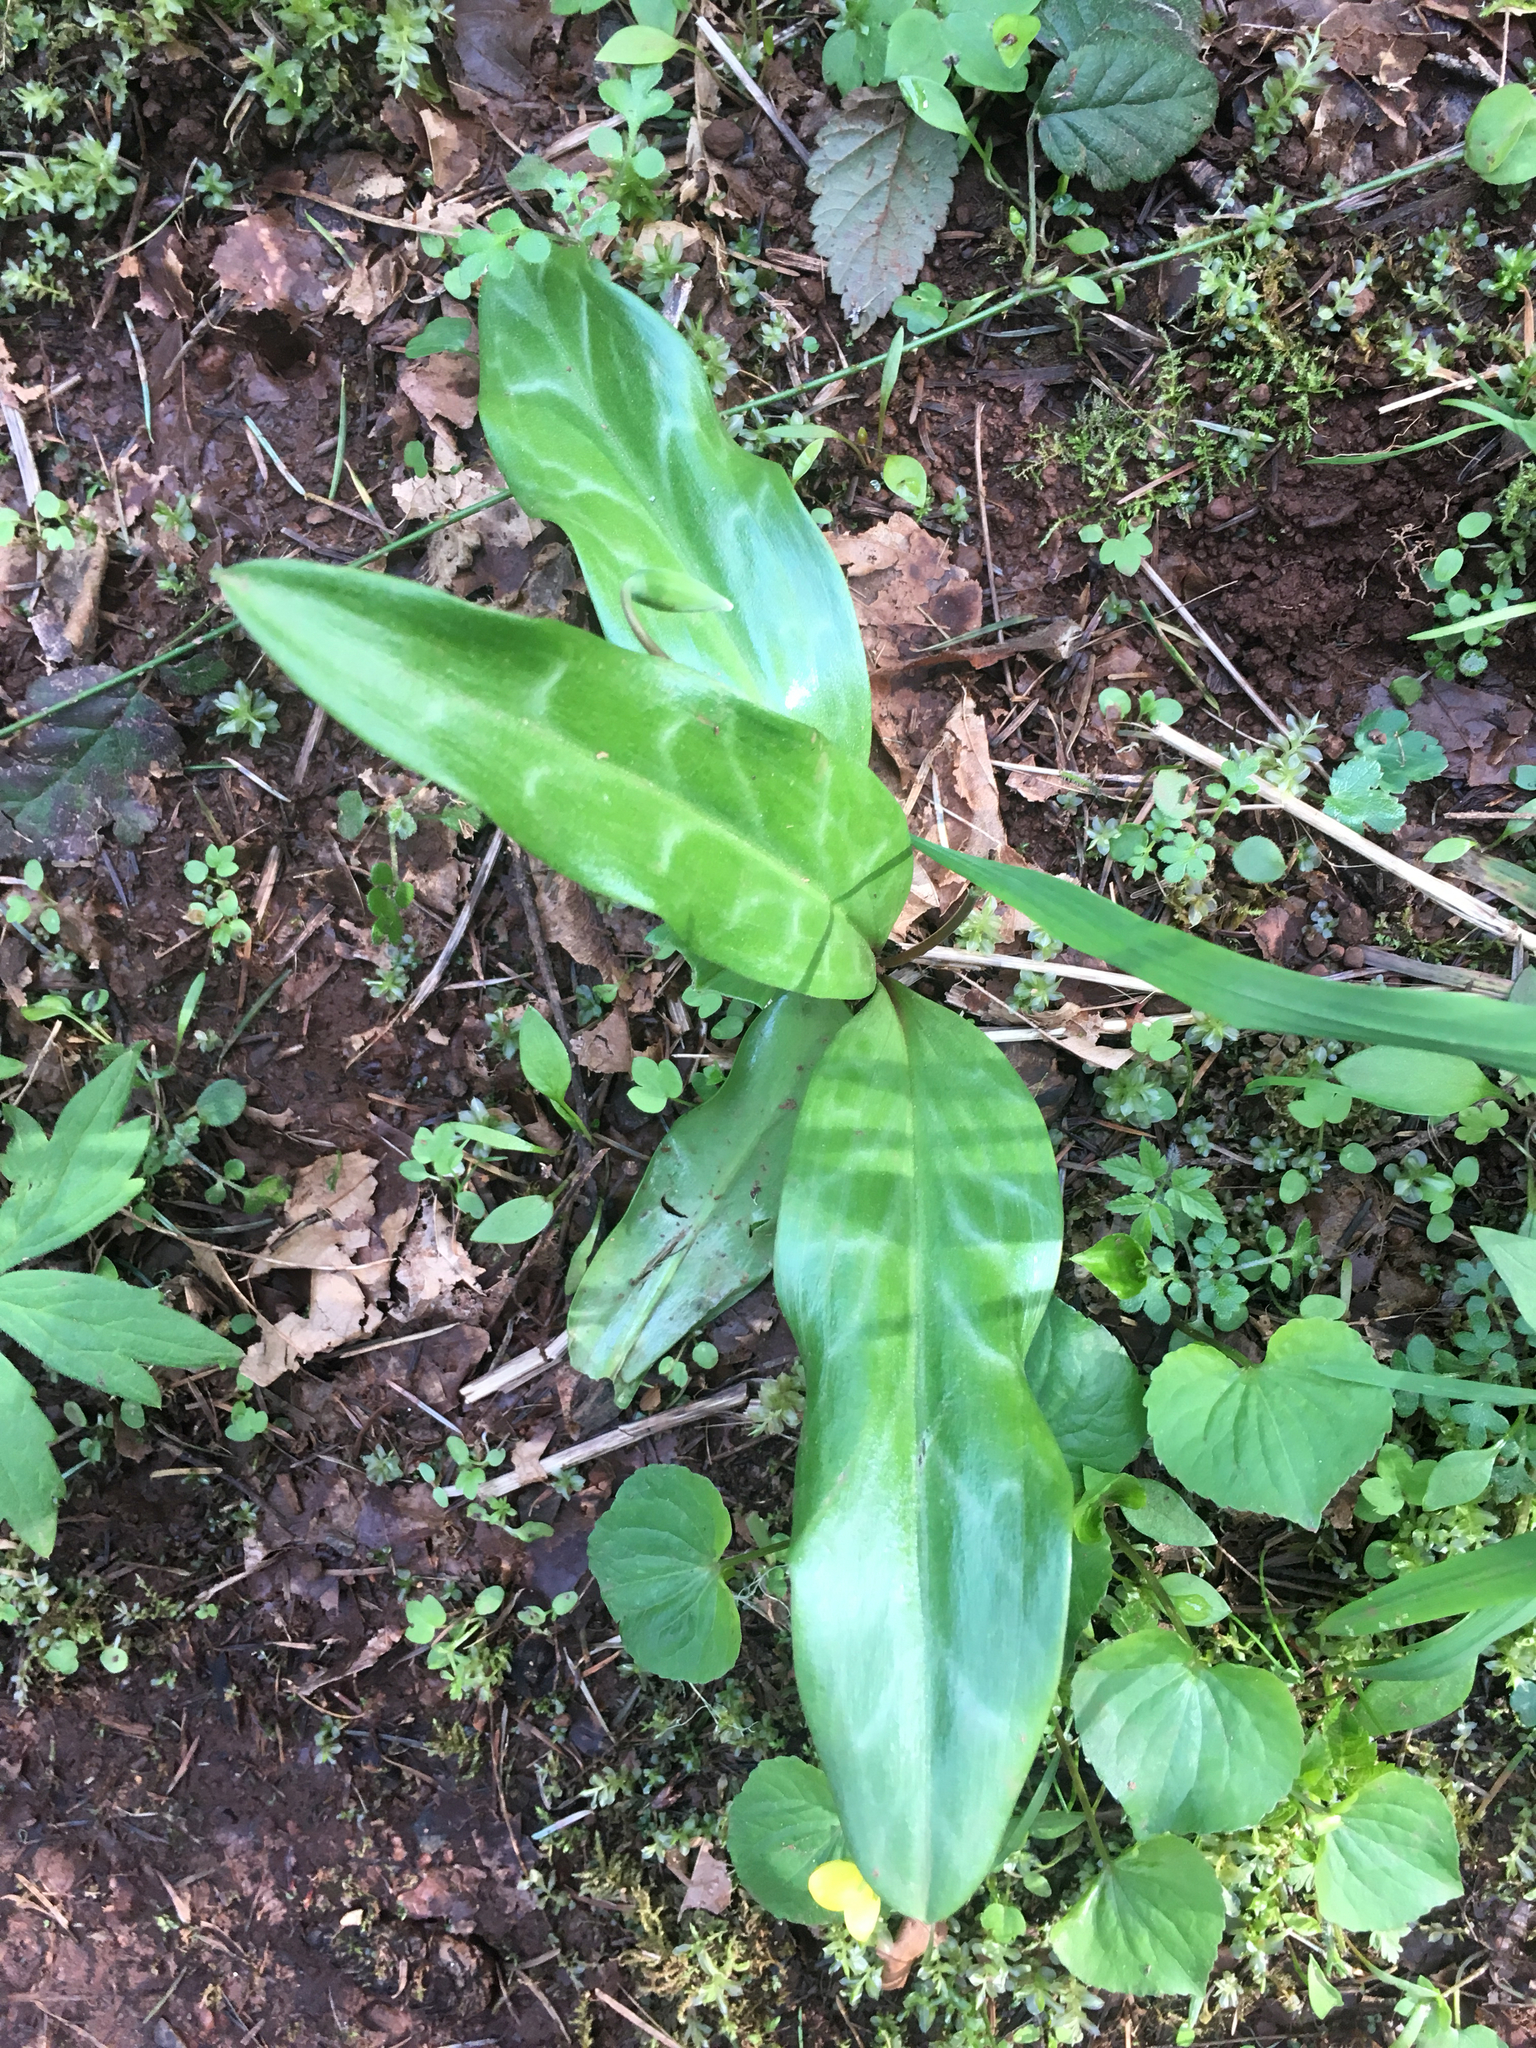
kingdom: Plantae
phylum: Tracheophyta
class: Liliopsida
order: Liliales
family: Liliaceae
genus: Erythronium
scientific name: Erythronium oregonum
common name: Giant adder's-tongue
